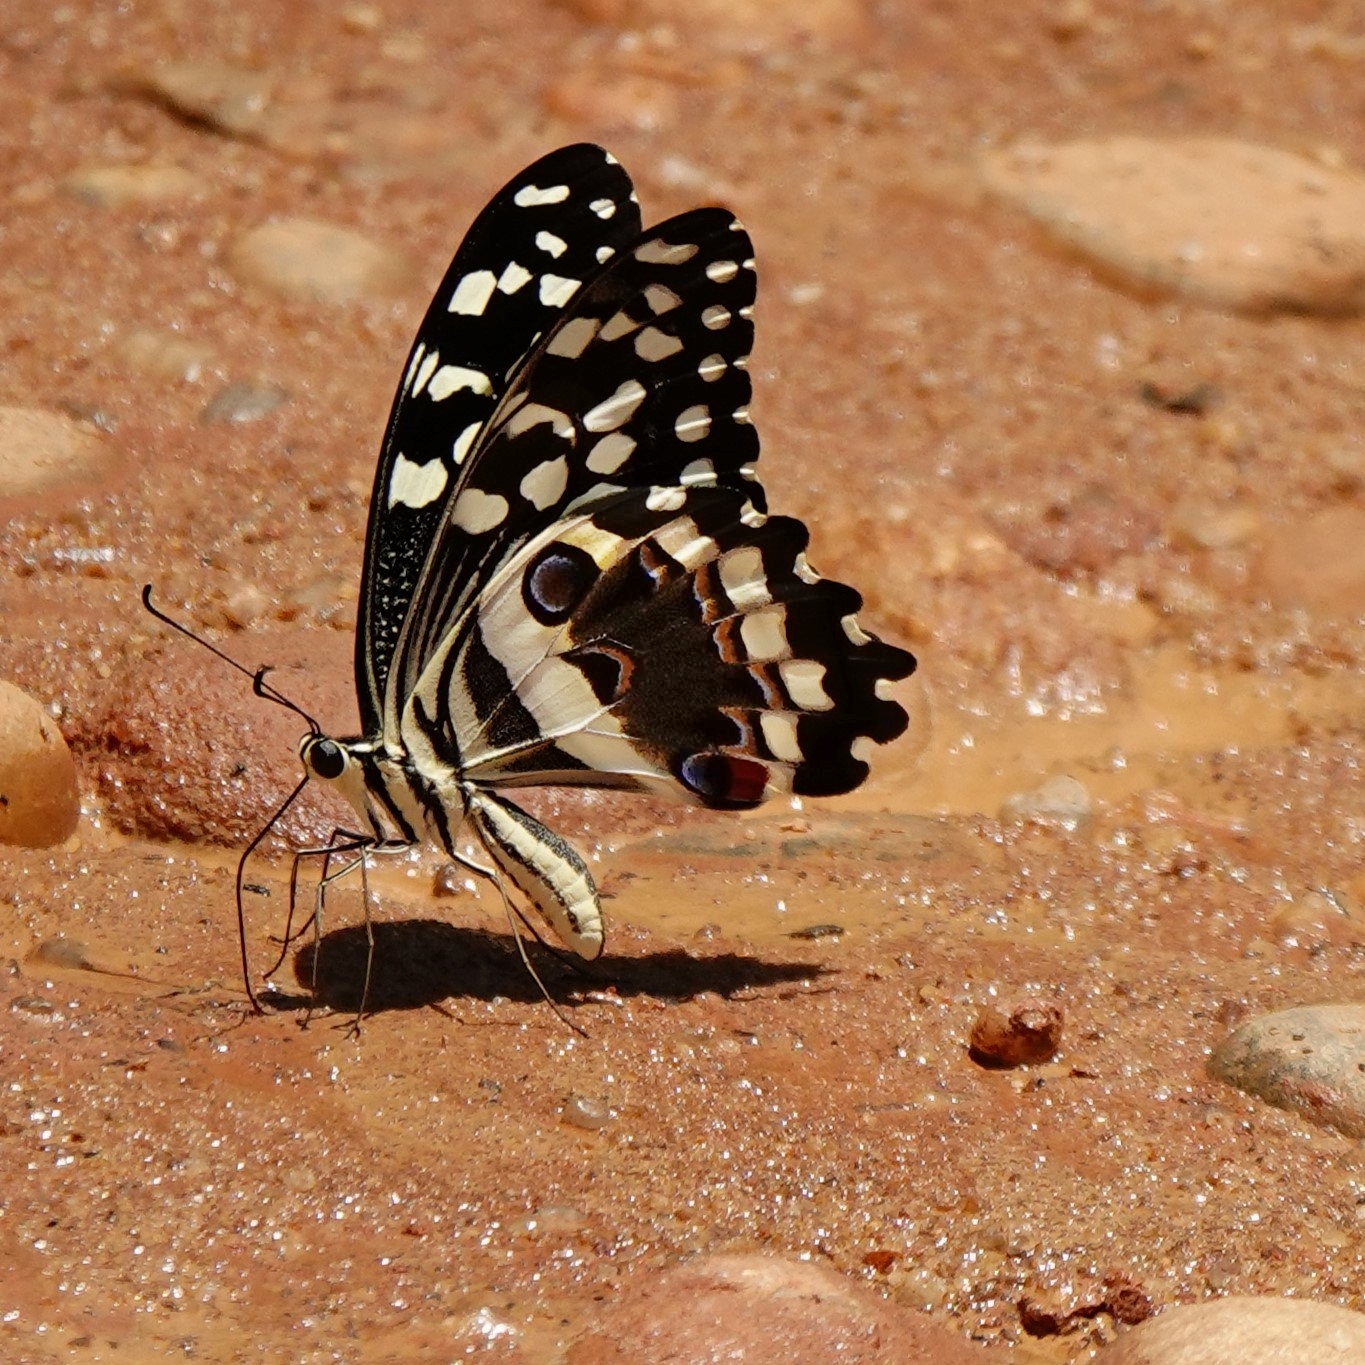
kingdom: Animalia
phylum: Arthropoda
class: Insecta
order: Lepidoptera
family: Papilionidae
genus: Papilio
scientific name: Papilio demodocus
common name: Christmas butterfly
